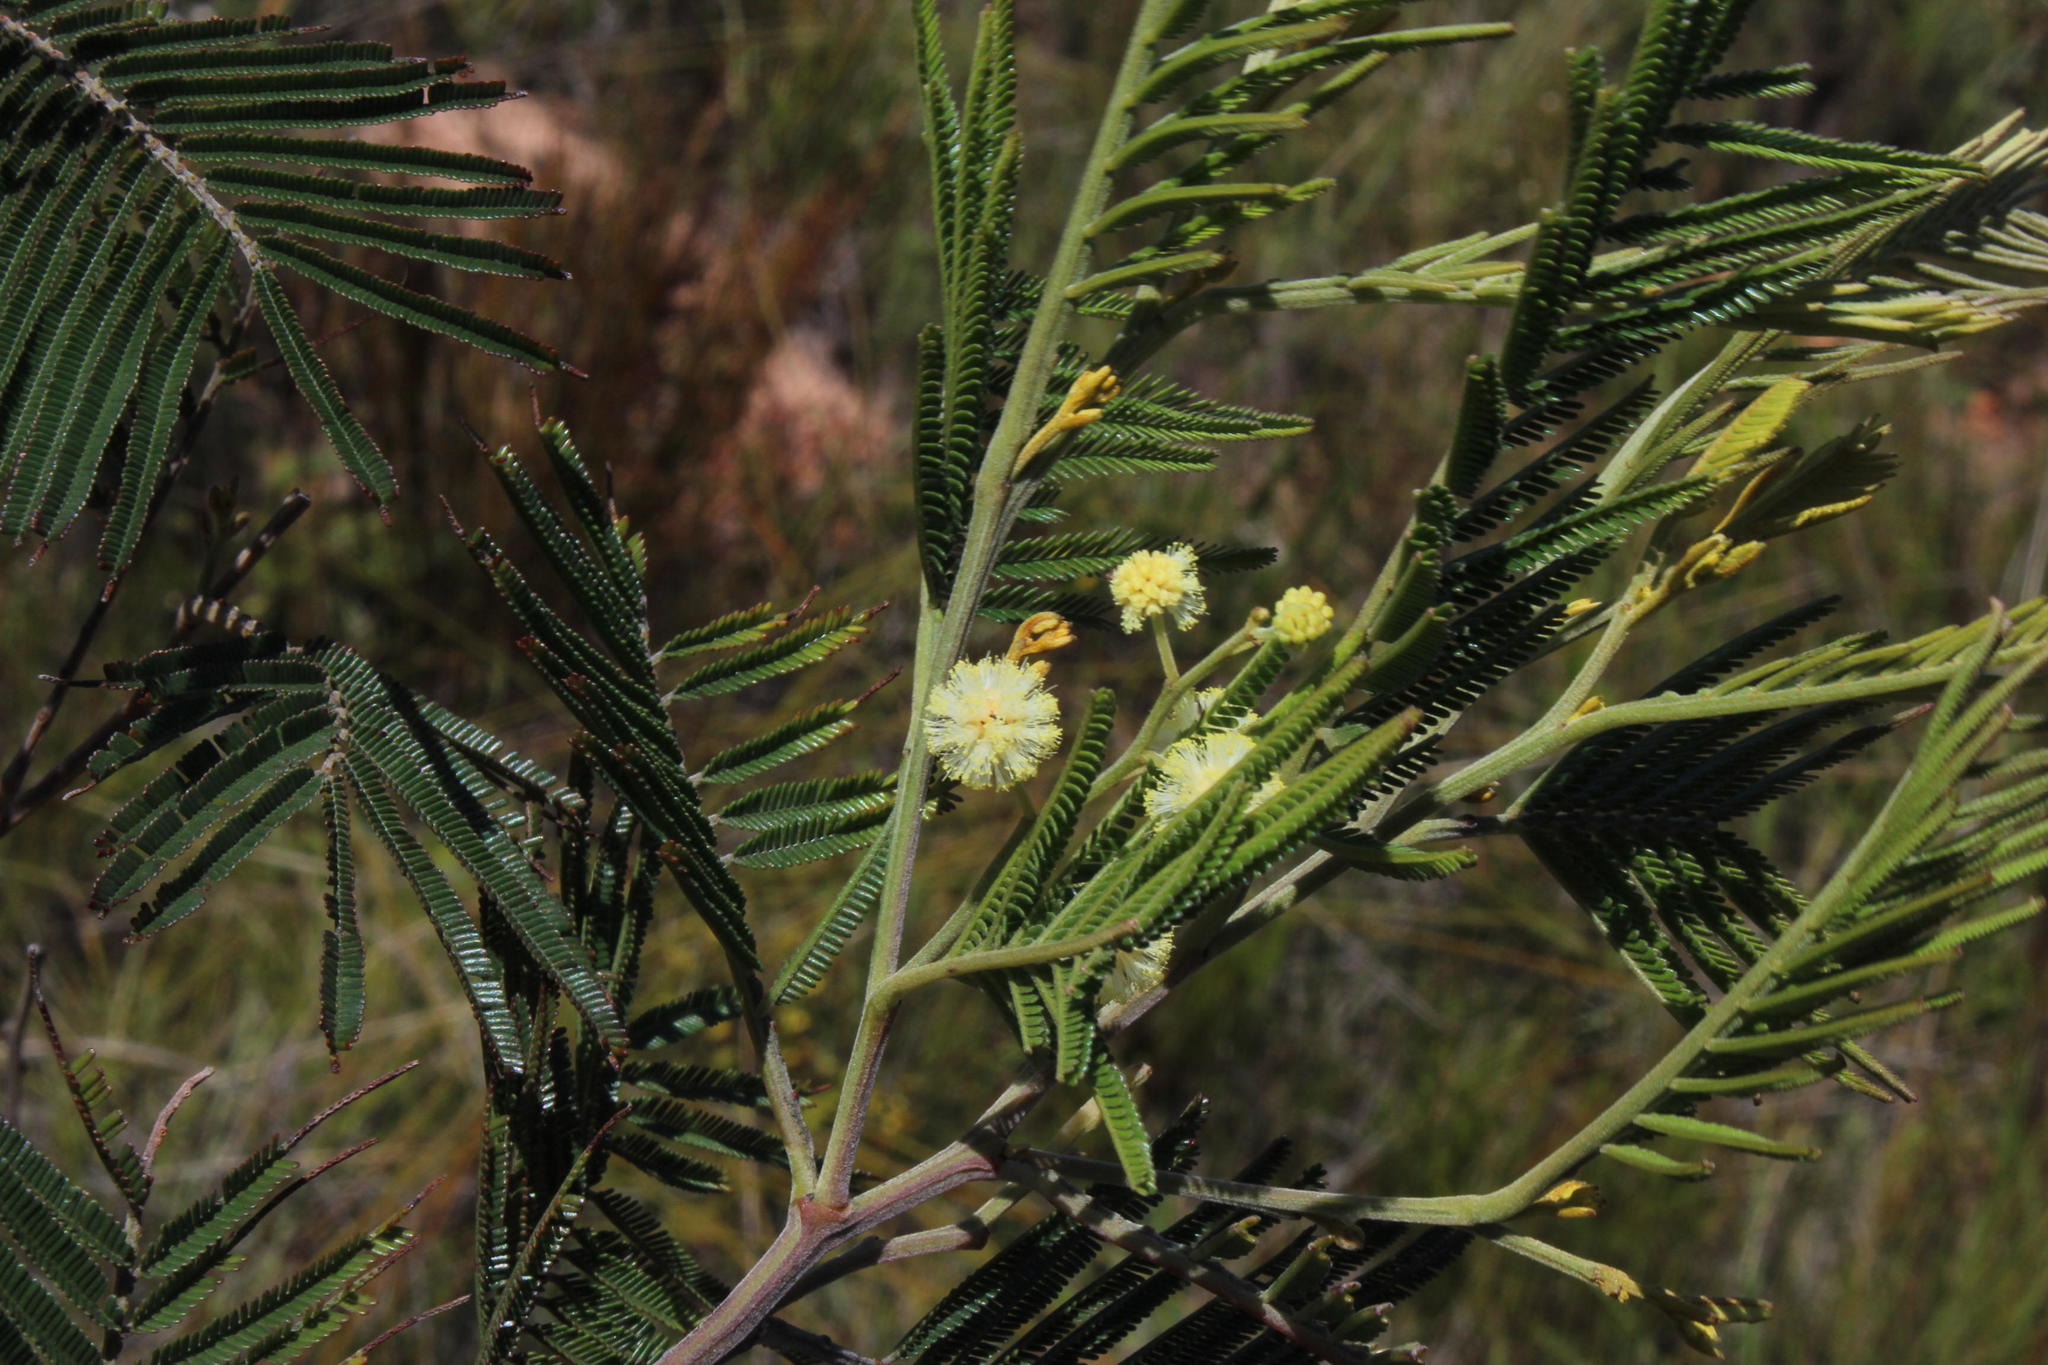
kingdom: Plantae
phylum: Tracheophyta
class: Magnoliopsida
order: Fabales
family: Fabaceae
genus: Acacia
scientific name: Acacia mearnsii
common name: Black wattle
